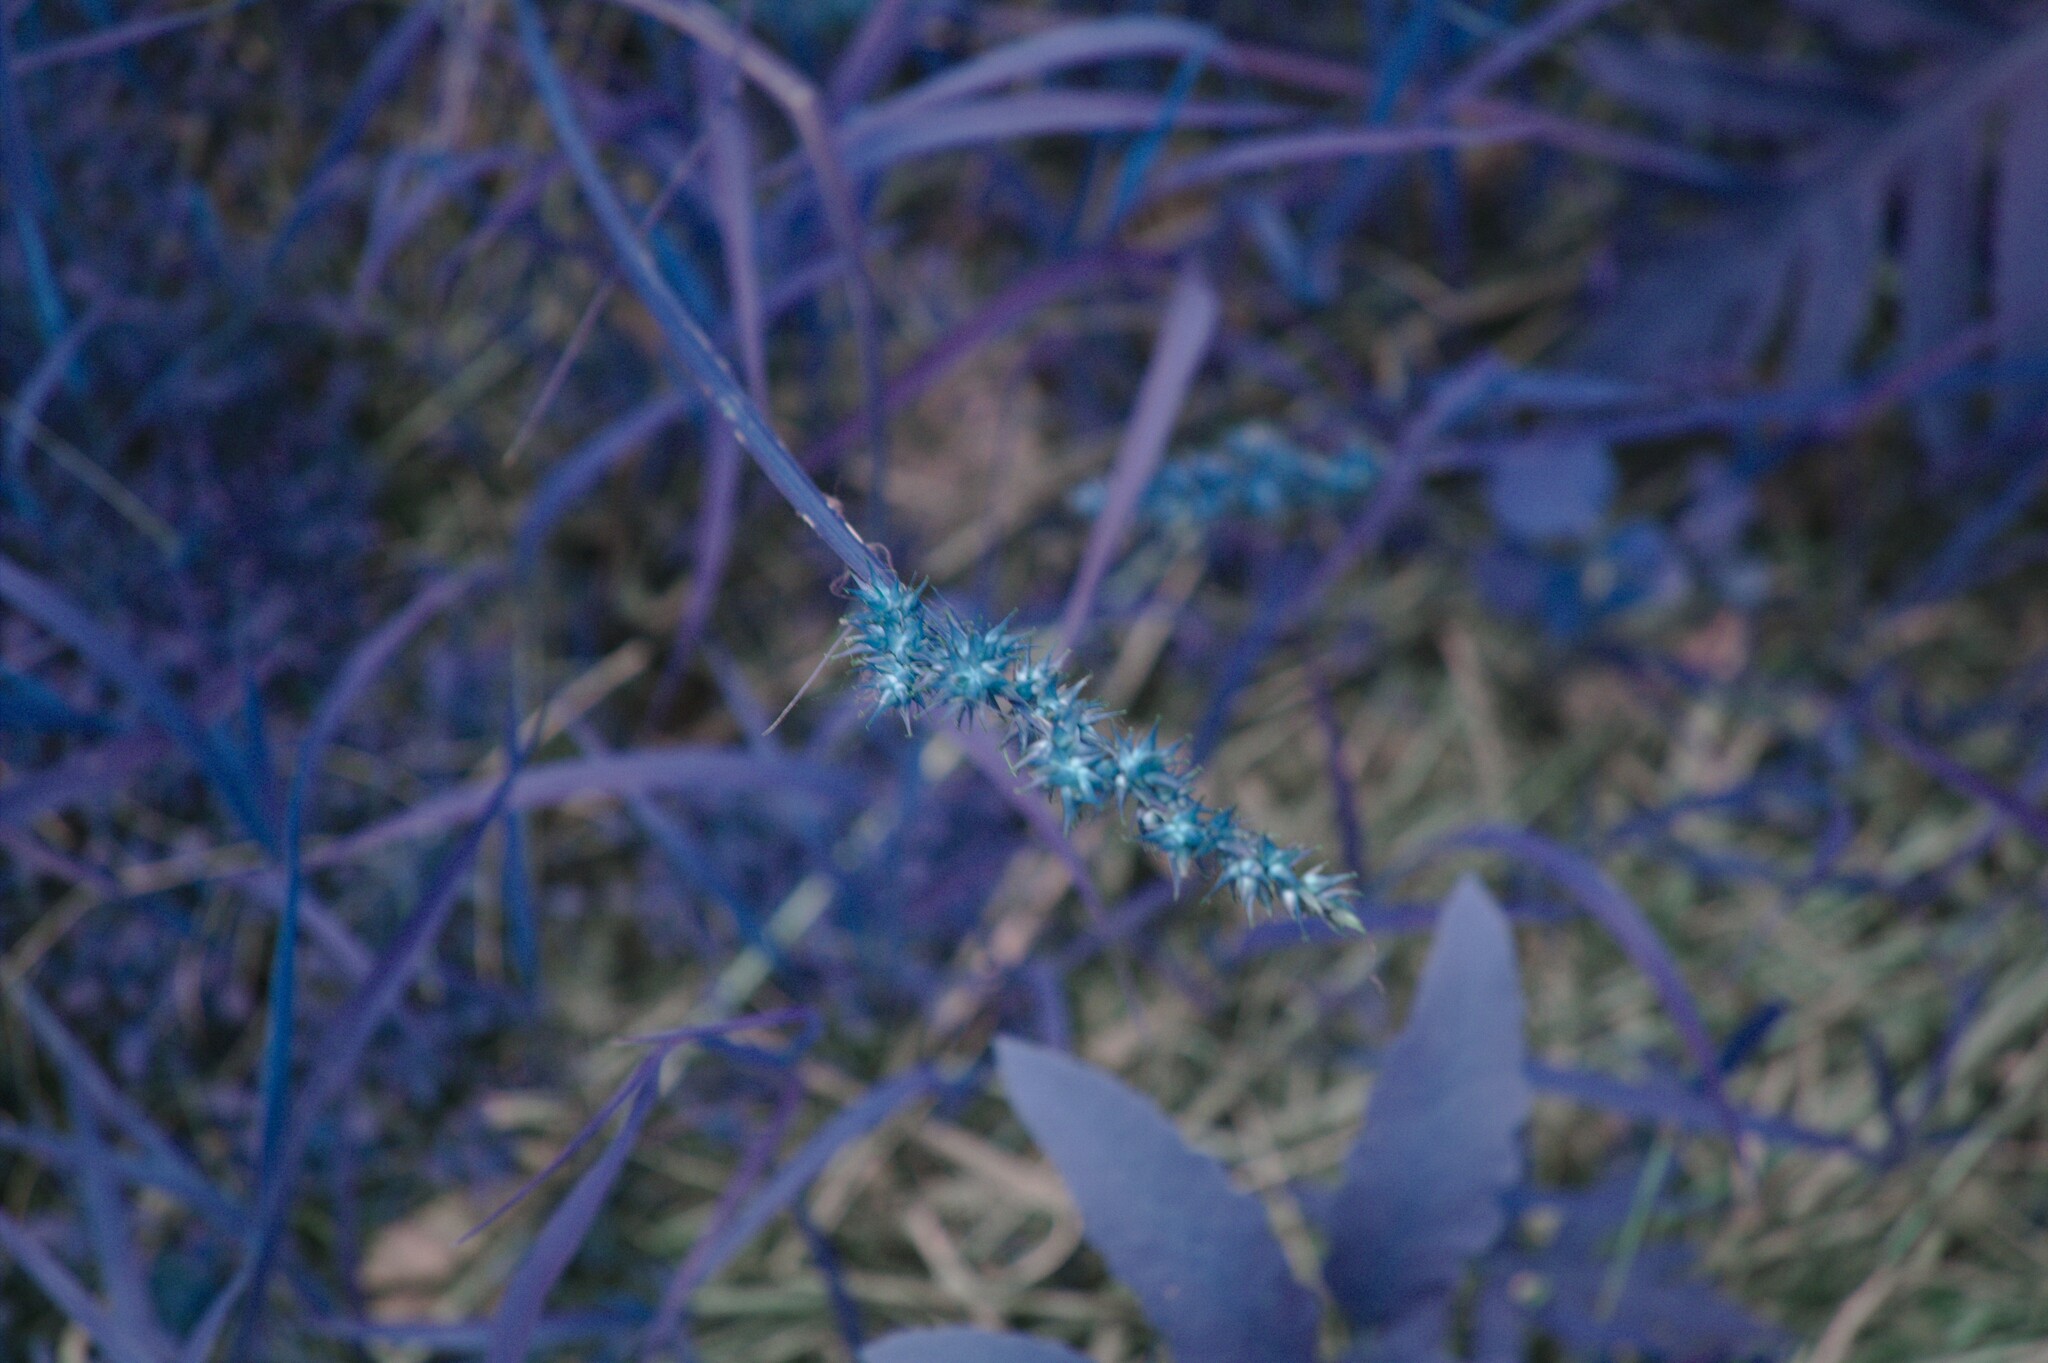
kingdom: Plantae
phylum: Tracheophyta
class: Liliopsida
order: Poales
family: Cyperaceae
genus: Carex
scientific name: Carex stipata
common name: Awl-fruited sedge
